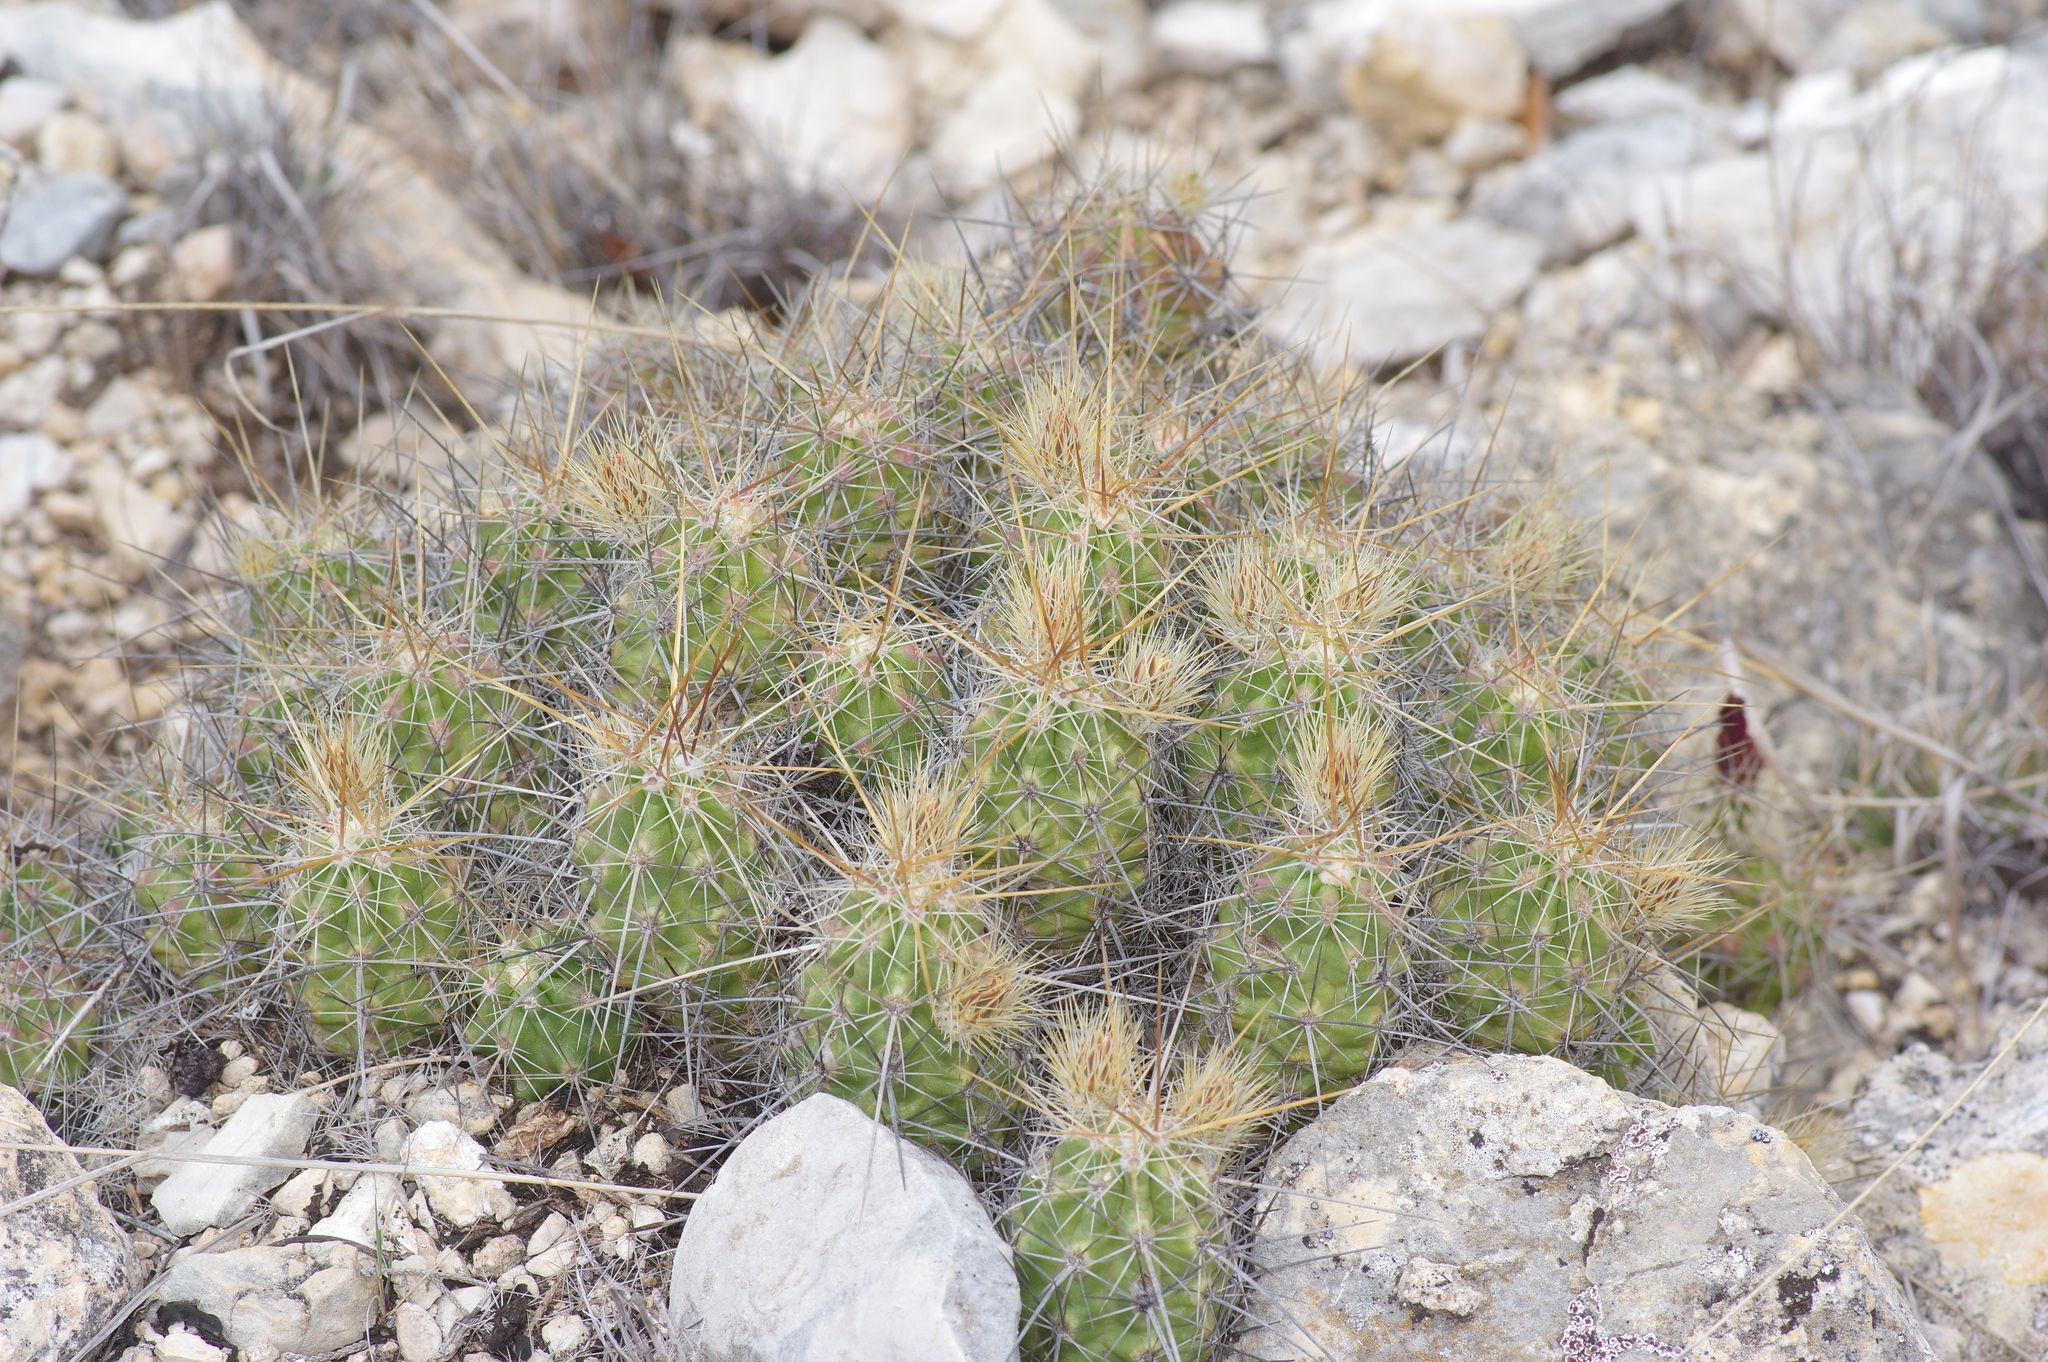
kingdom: Plantae
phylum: Tracheophyta
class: Magnoliopsida
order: Caryophyllales
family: Cactaceae
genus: Echinocereus
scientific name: Echinocereus enneacanthus
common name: Pitaya
